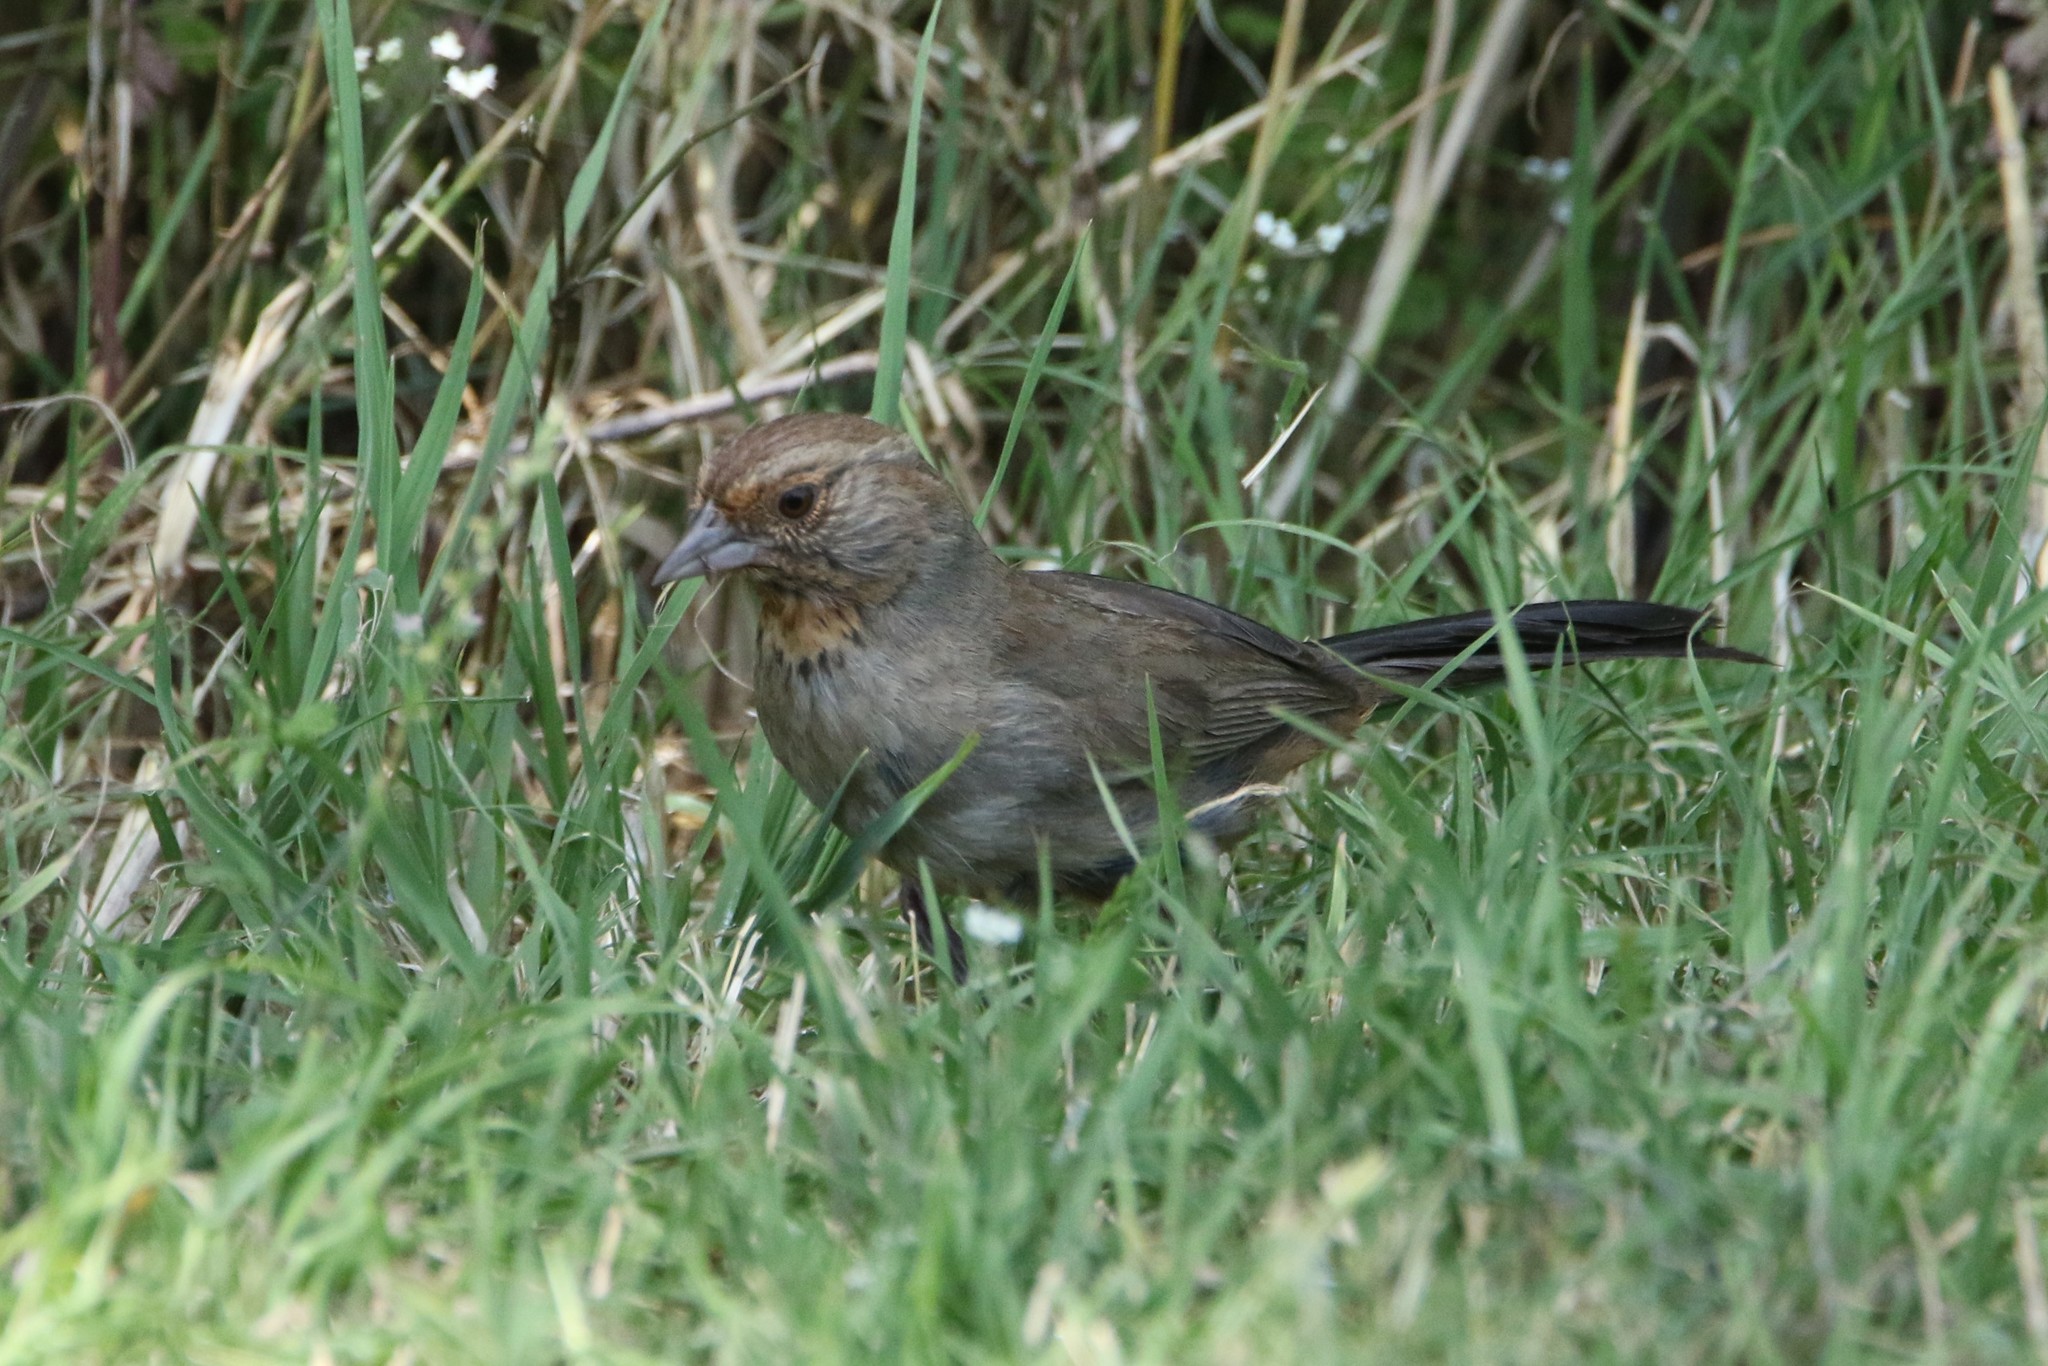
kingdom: Animalia
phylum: Chordata
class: Aves
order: Passeriformes
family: Passerellidae
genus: Melozone
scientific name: Melozone crissalis
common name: California towhee
